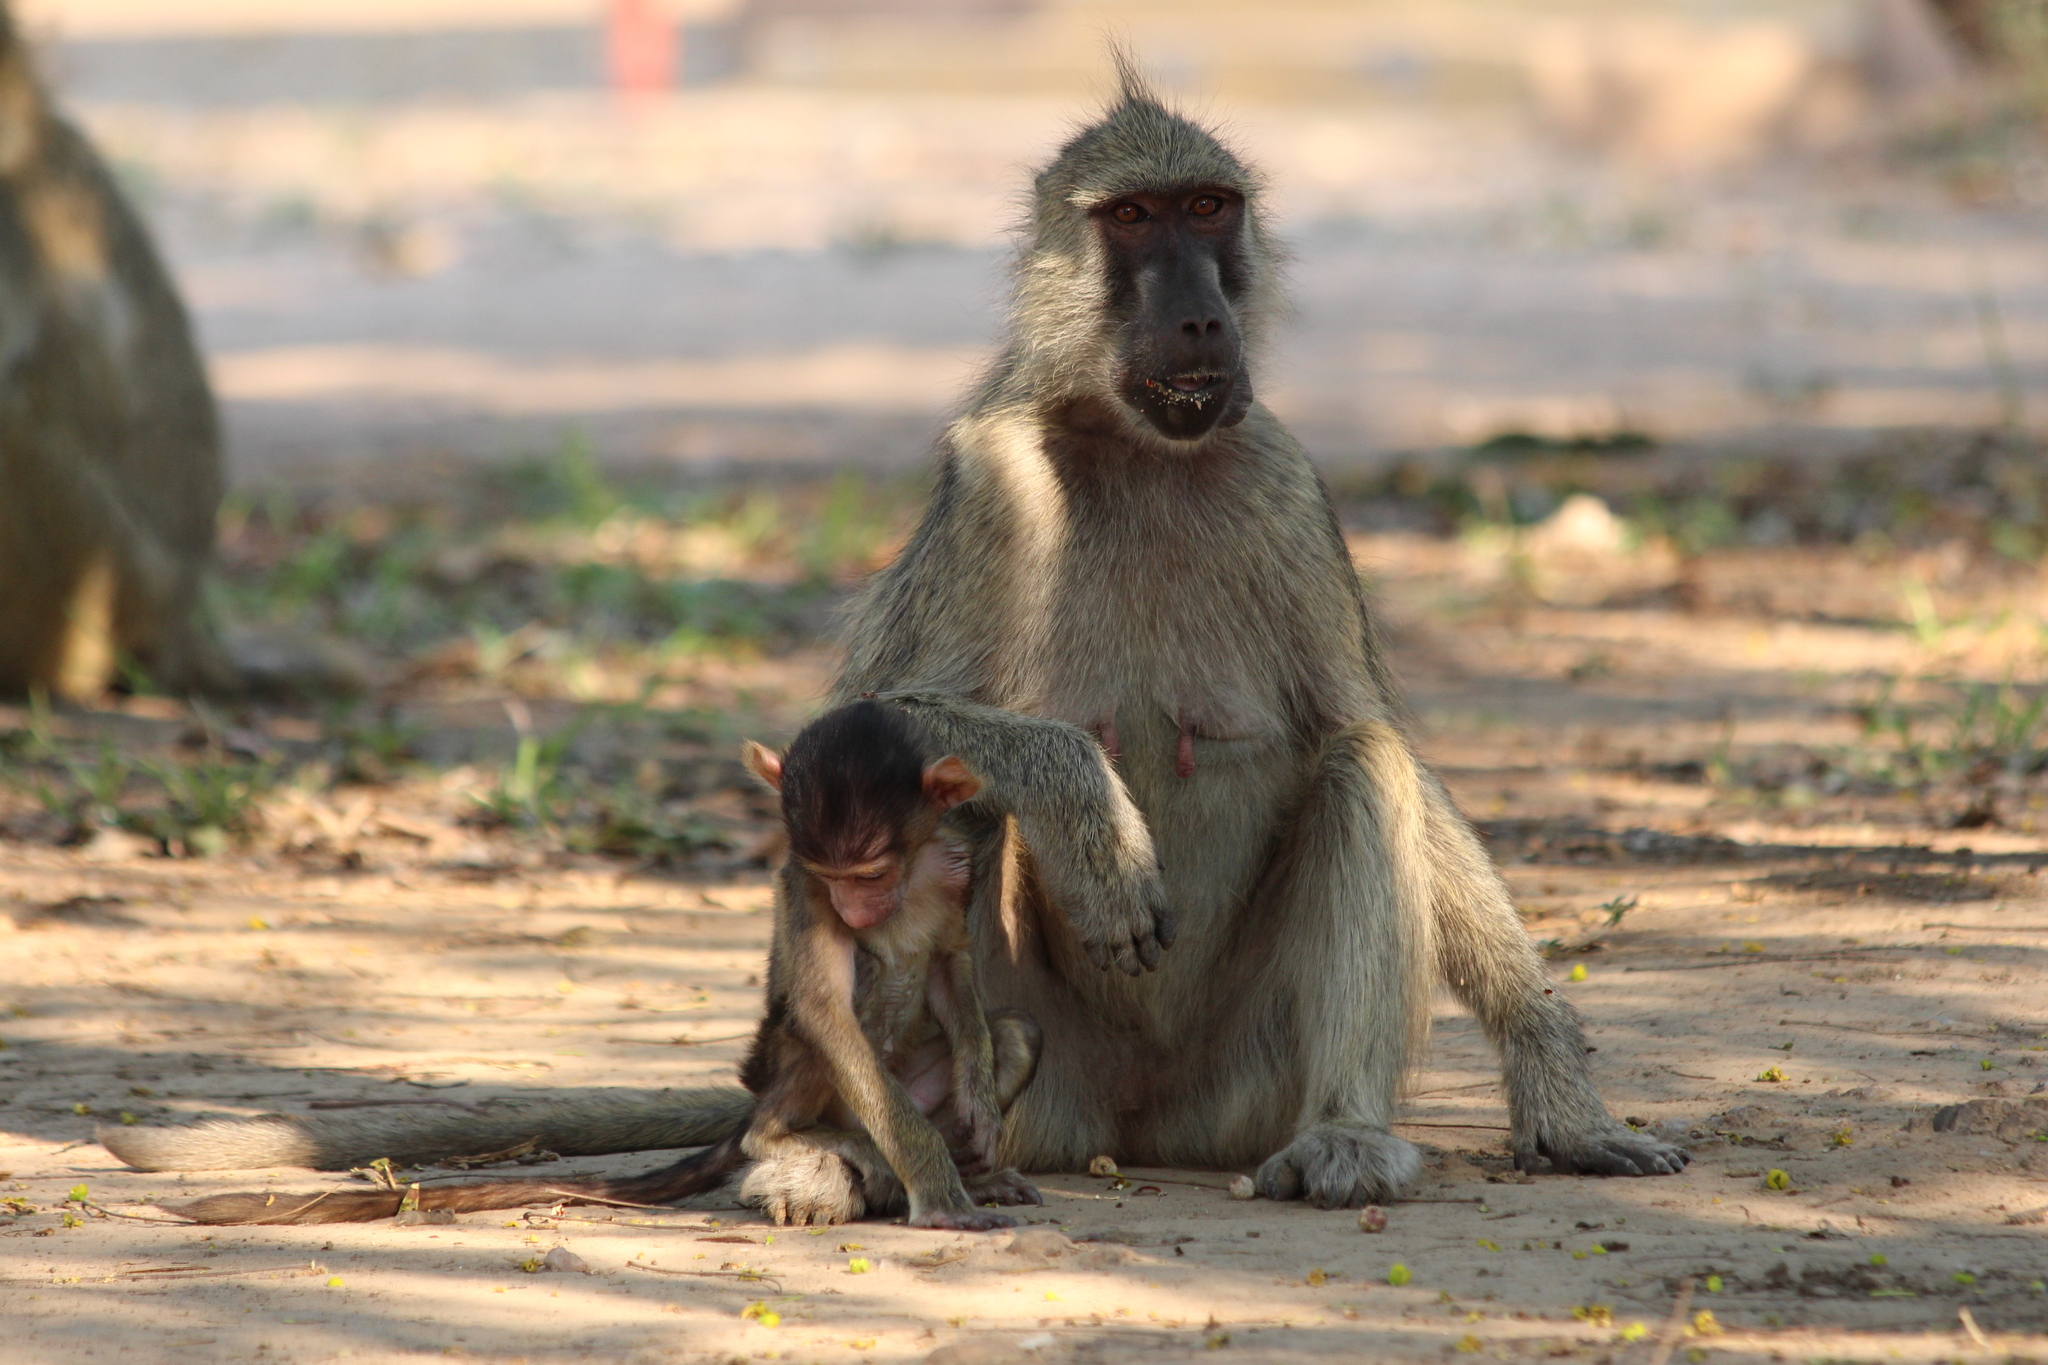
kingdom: Animalia
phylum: Chordata
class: Mammalia
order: Primates
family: Cercopithecidae
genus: Papio
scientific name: Papio cynocephalus
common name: Yellow baboon
